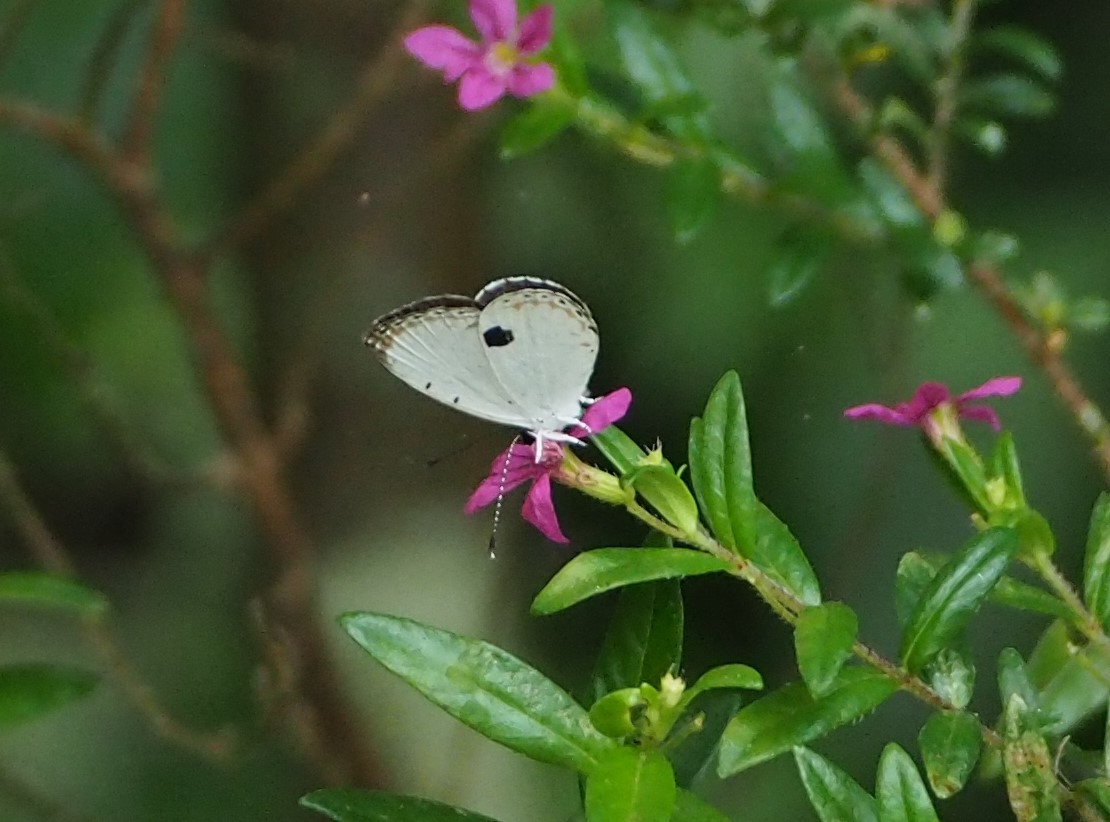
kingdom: Animalia
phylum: Arthropoda
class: Insecta
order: Lepidoptera
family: Lycaenidae
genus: Pithecops
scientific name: Pithecops corvus
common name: Forest quaker
